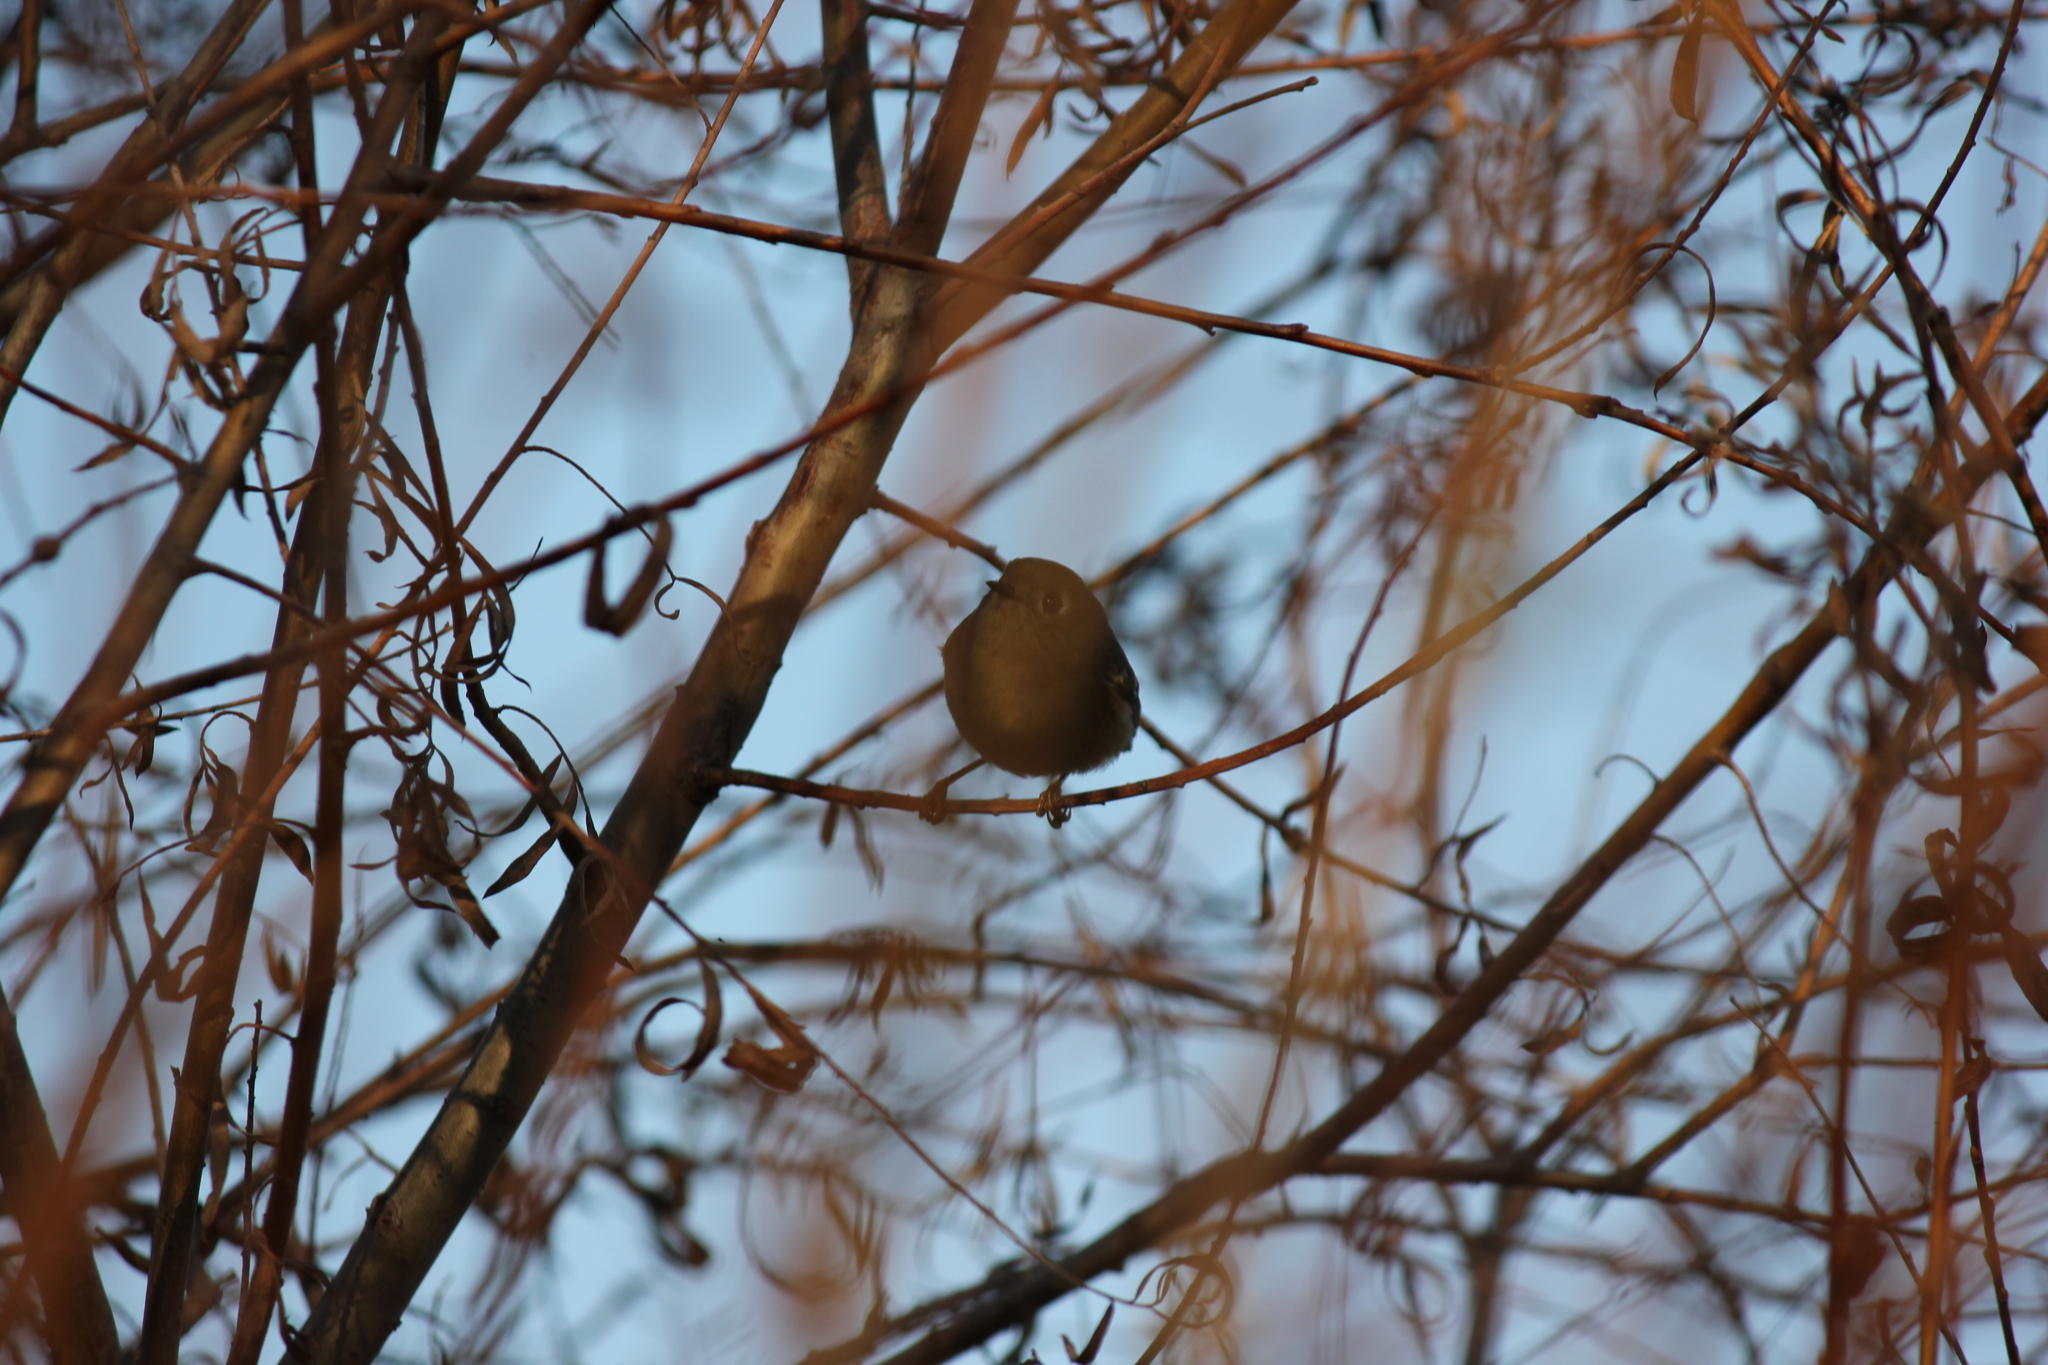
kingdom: Animalia
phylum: Chordata
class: Aves
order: Passeriformes
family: Regulidae
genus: Regulus
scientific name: Regulus calendula
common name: Ruby-crowned kinglet
